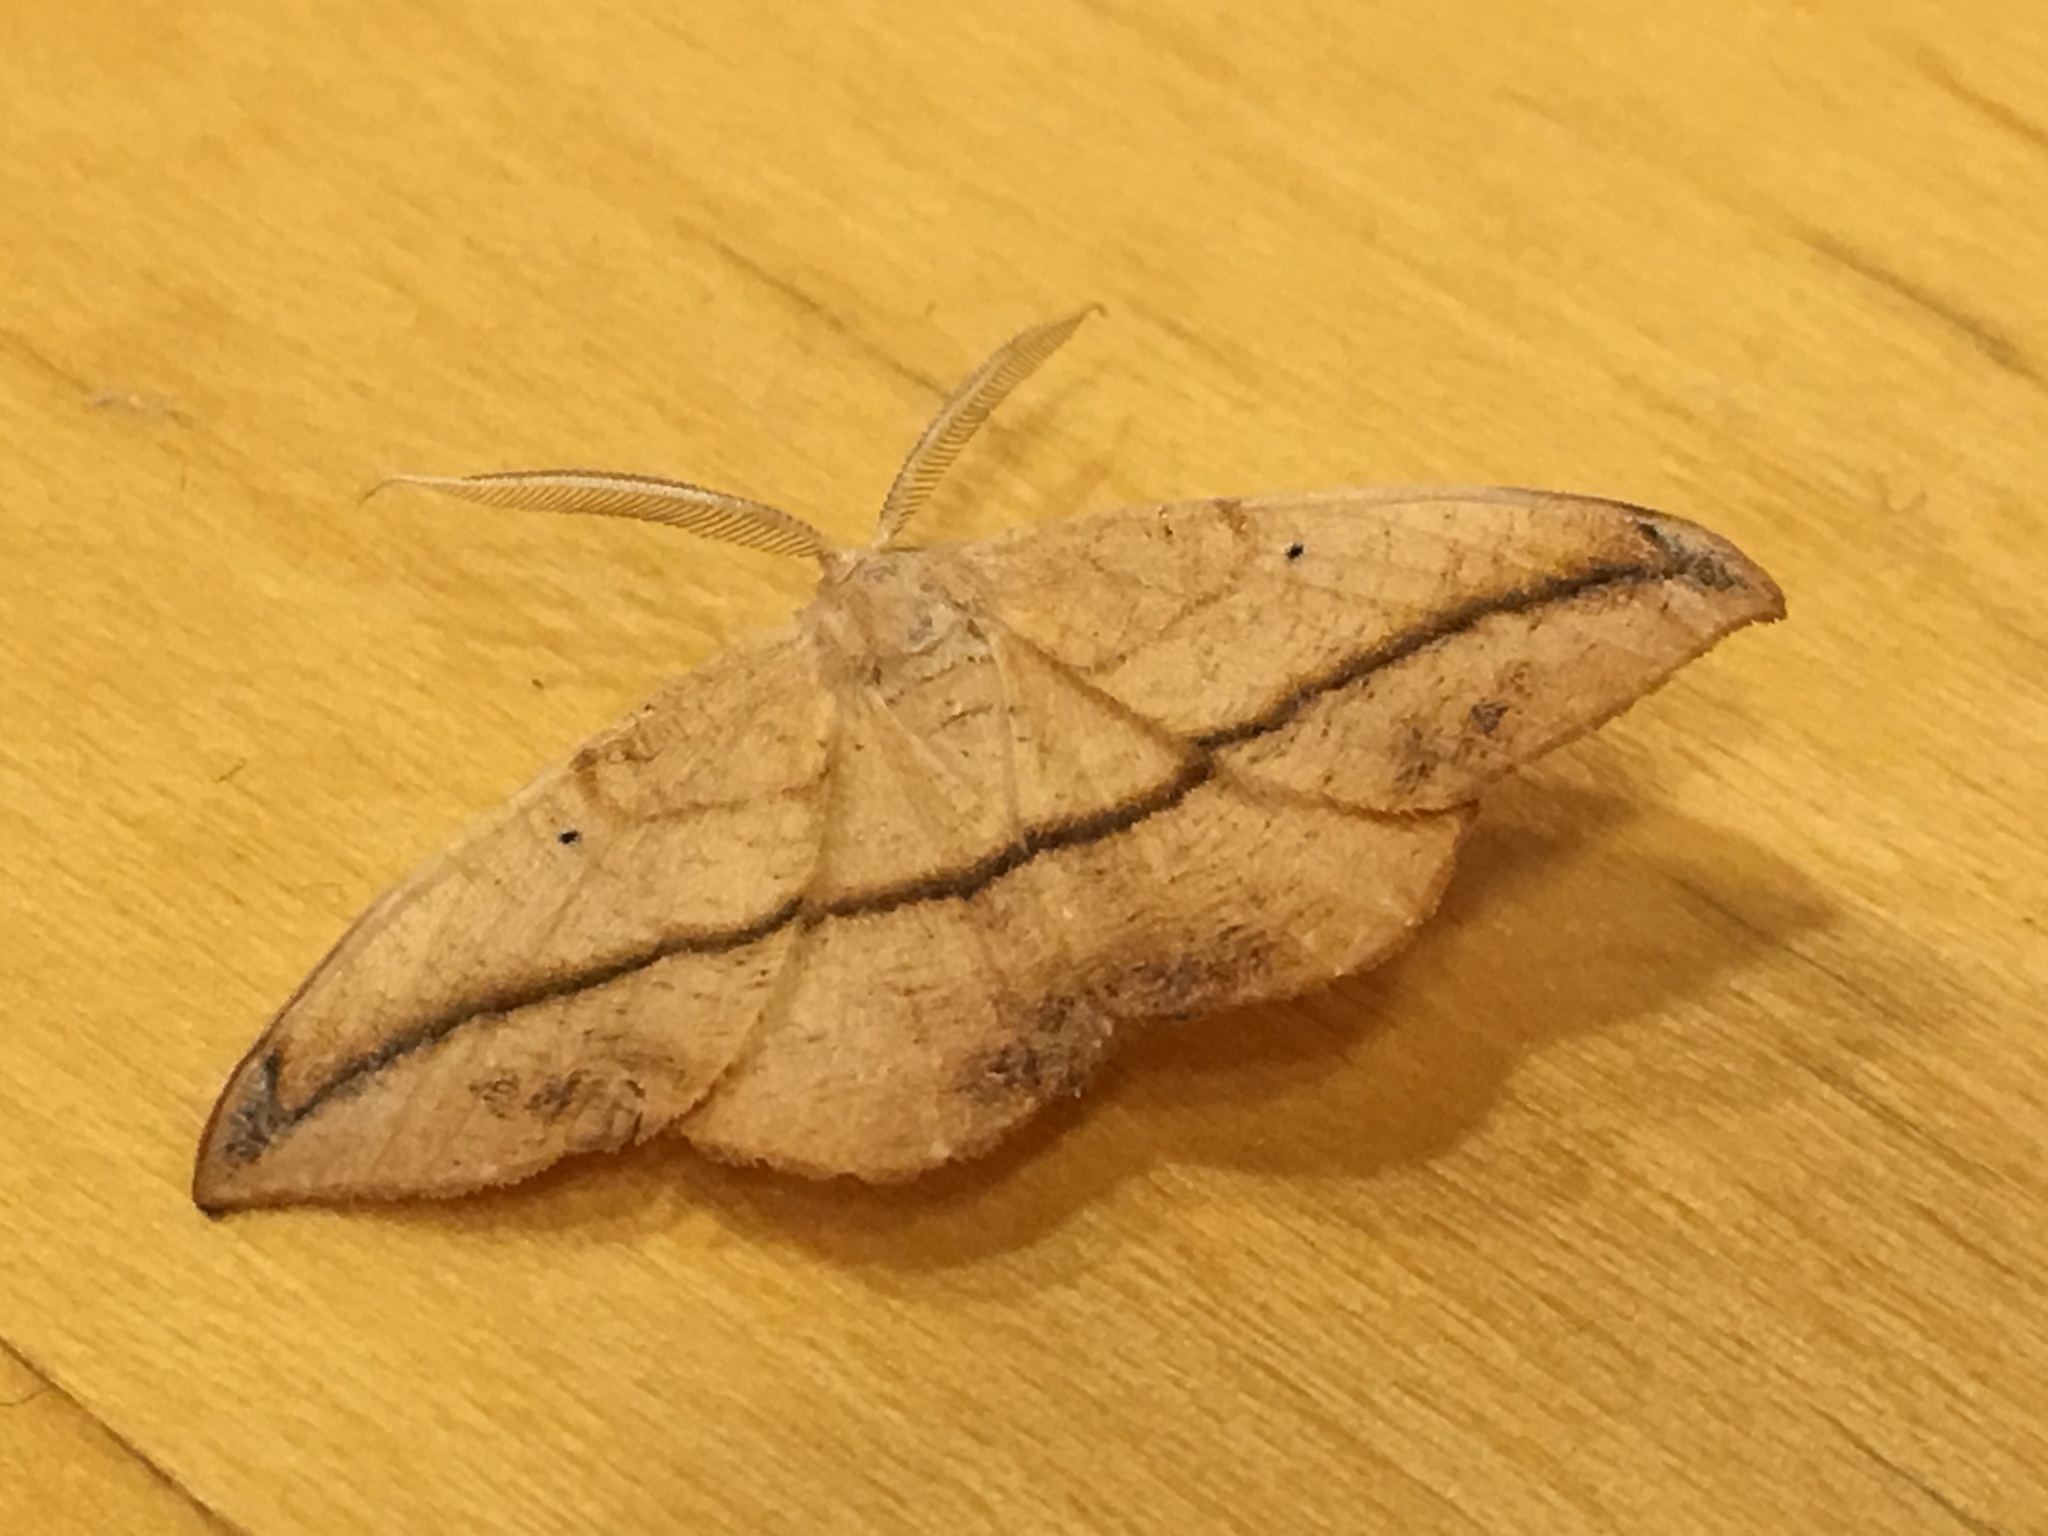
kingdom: Animalia
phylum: Arthropoda
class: Insecta
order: Lepidoptera
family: Geometridae
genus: Patalene
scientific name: Patalene olyzonaria
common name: Juniper geometer moth
